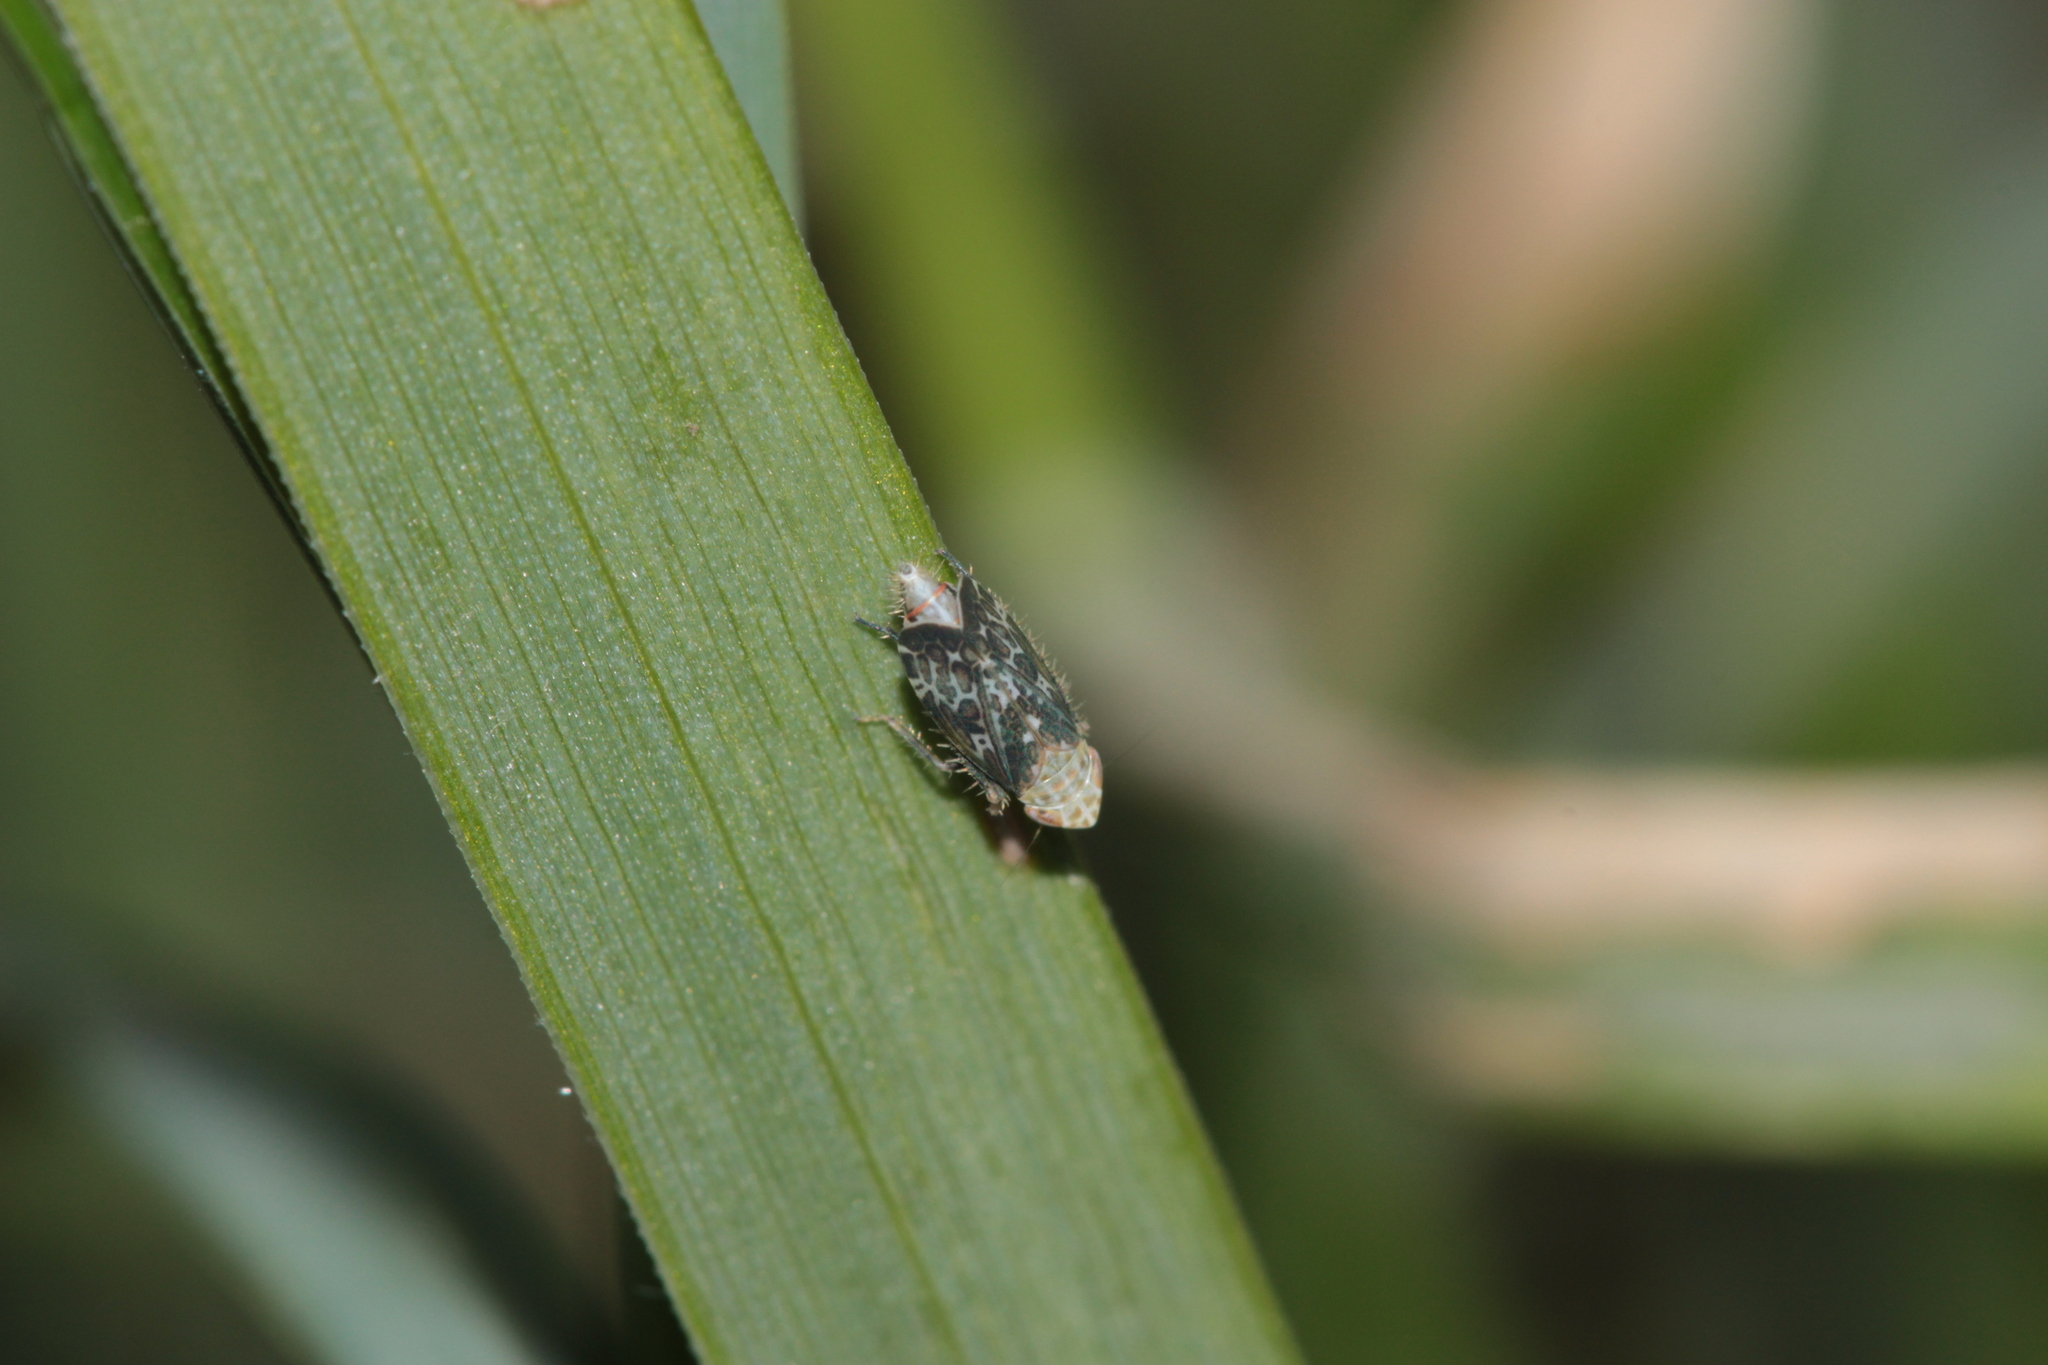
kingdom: Animalia
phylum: Arthropoda
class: Insecta
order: Hemiptera
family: Cicadellidae
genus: Errastunus
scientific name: Errastunus ocellaris
